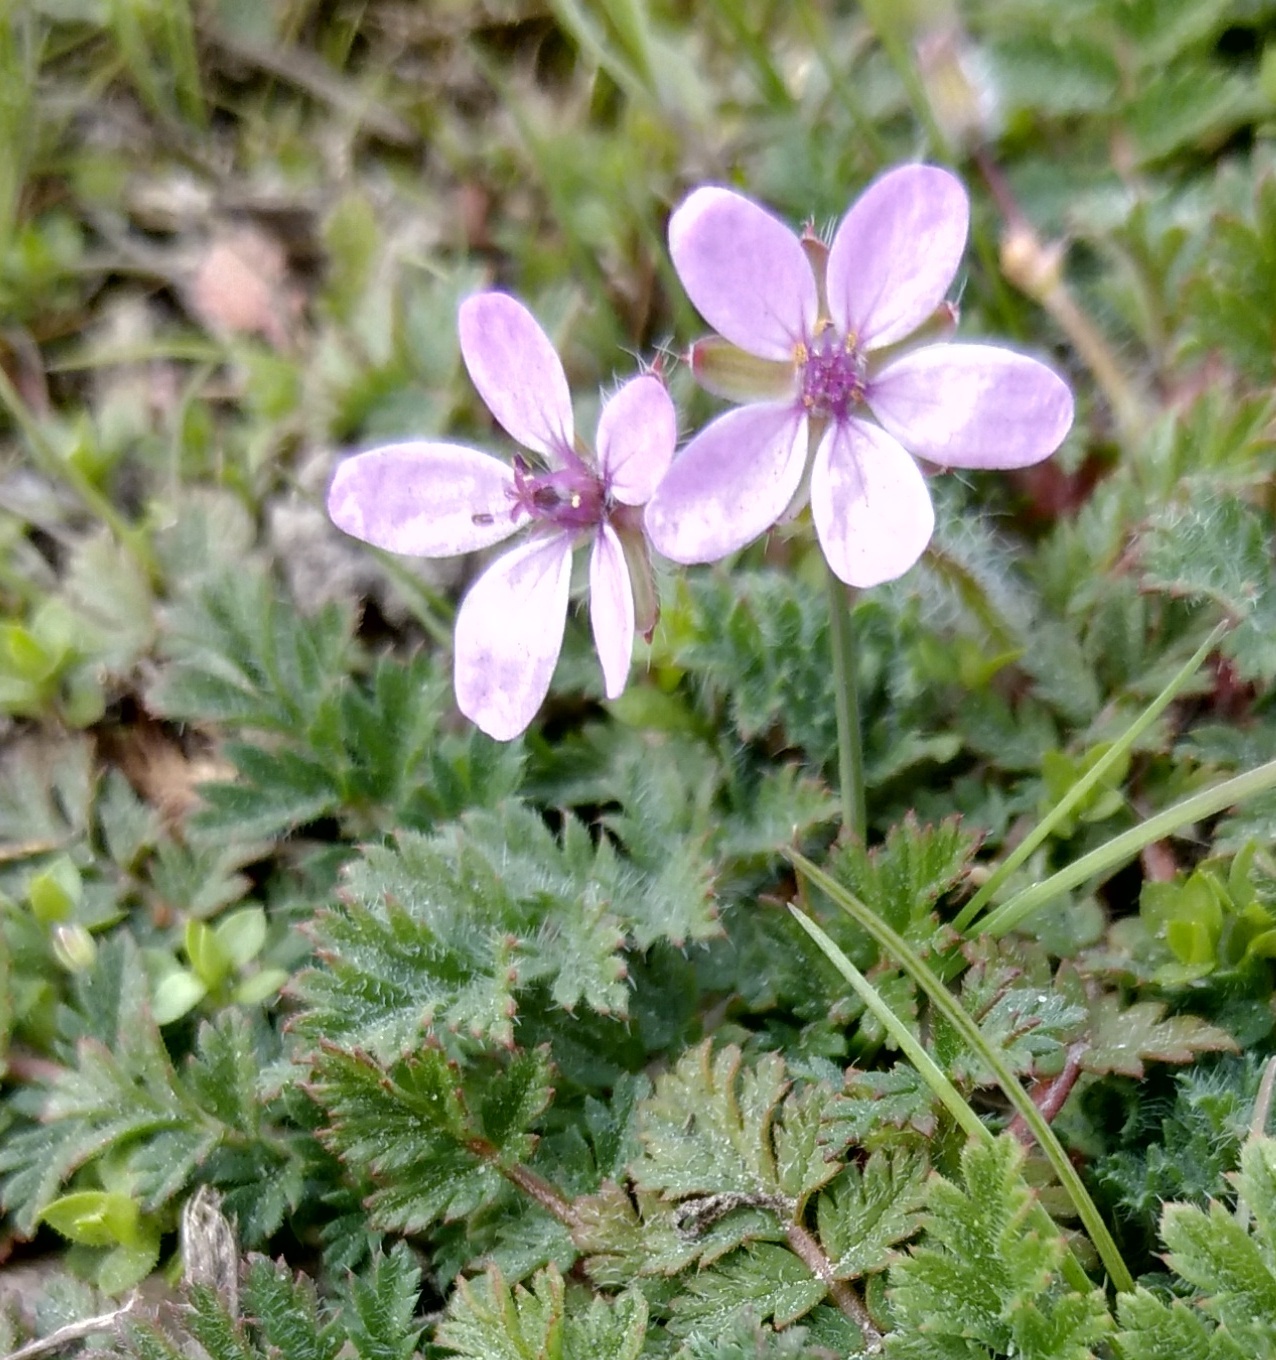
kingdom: Plantae
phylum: Tracheophyta
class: Magnoliopsida
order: Geraniales
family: Geraniaceae
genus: Erodium
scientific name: Erodium cicutarium
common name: Common stork's-bill
